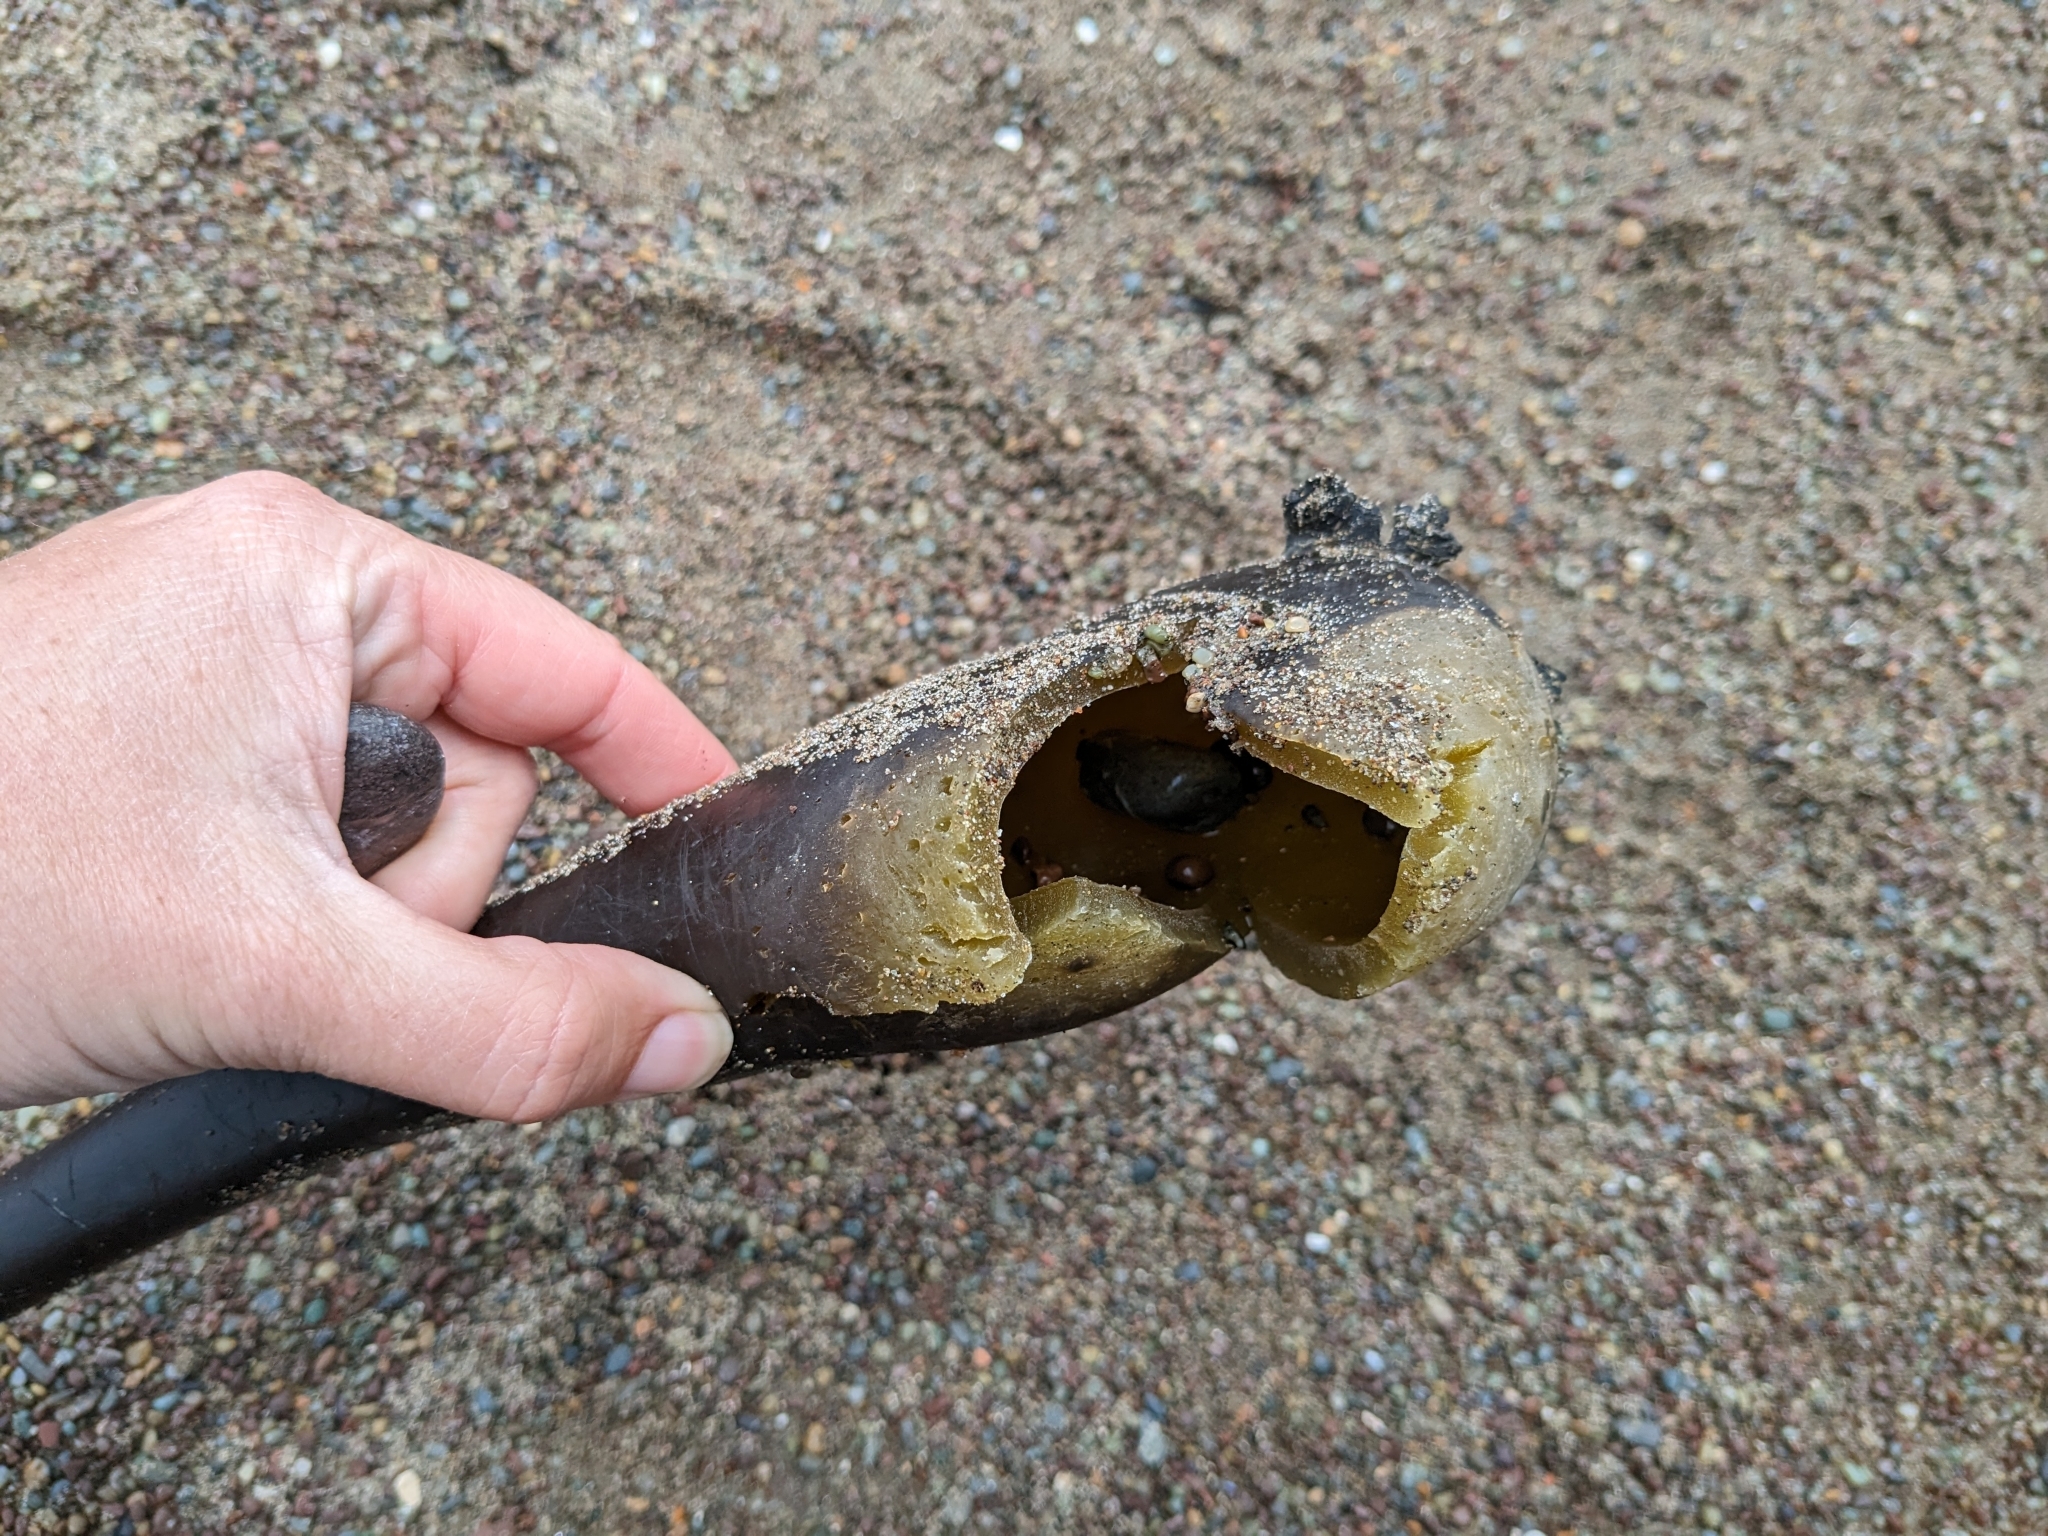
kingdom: Chromista
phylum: Ochrophyta
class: Phaeophyceae
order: Laminariales
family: Laminariaceae
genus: Nereocystis
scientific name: Nereocystis luetkeana
